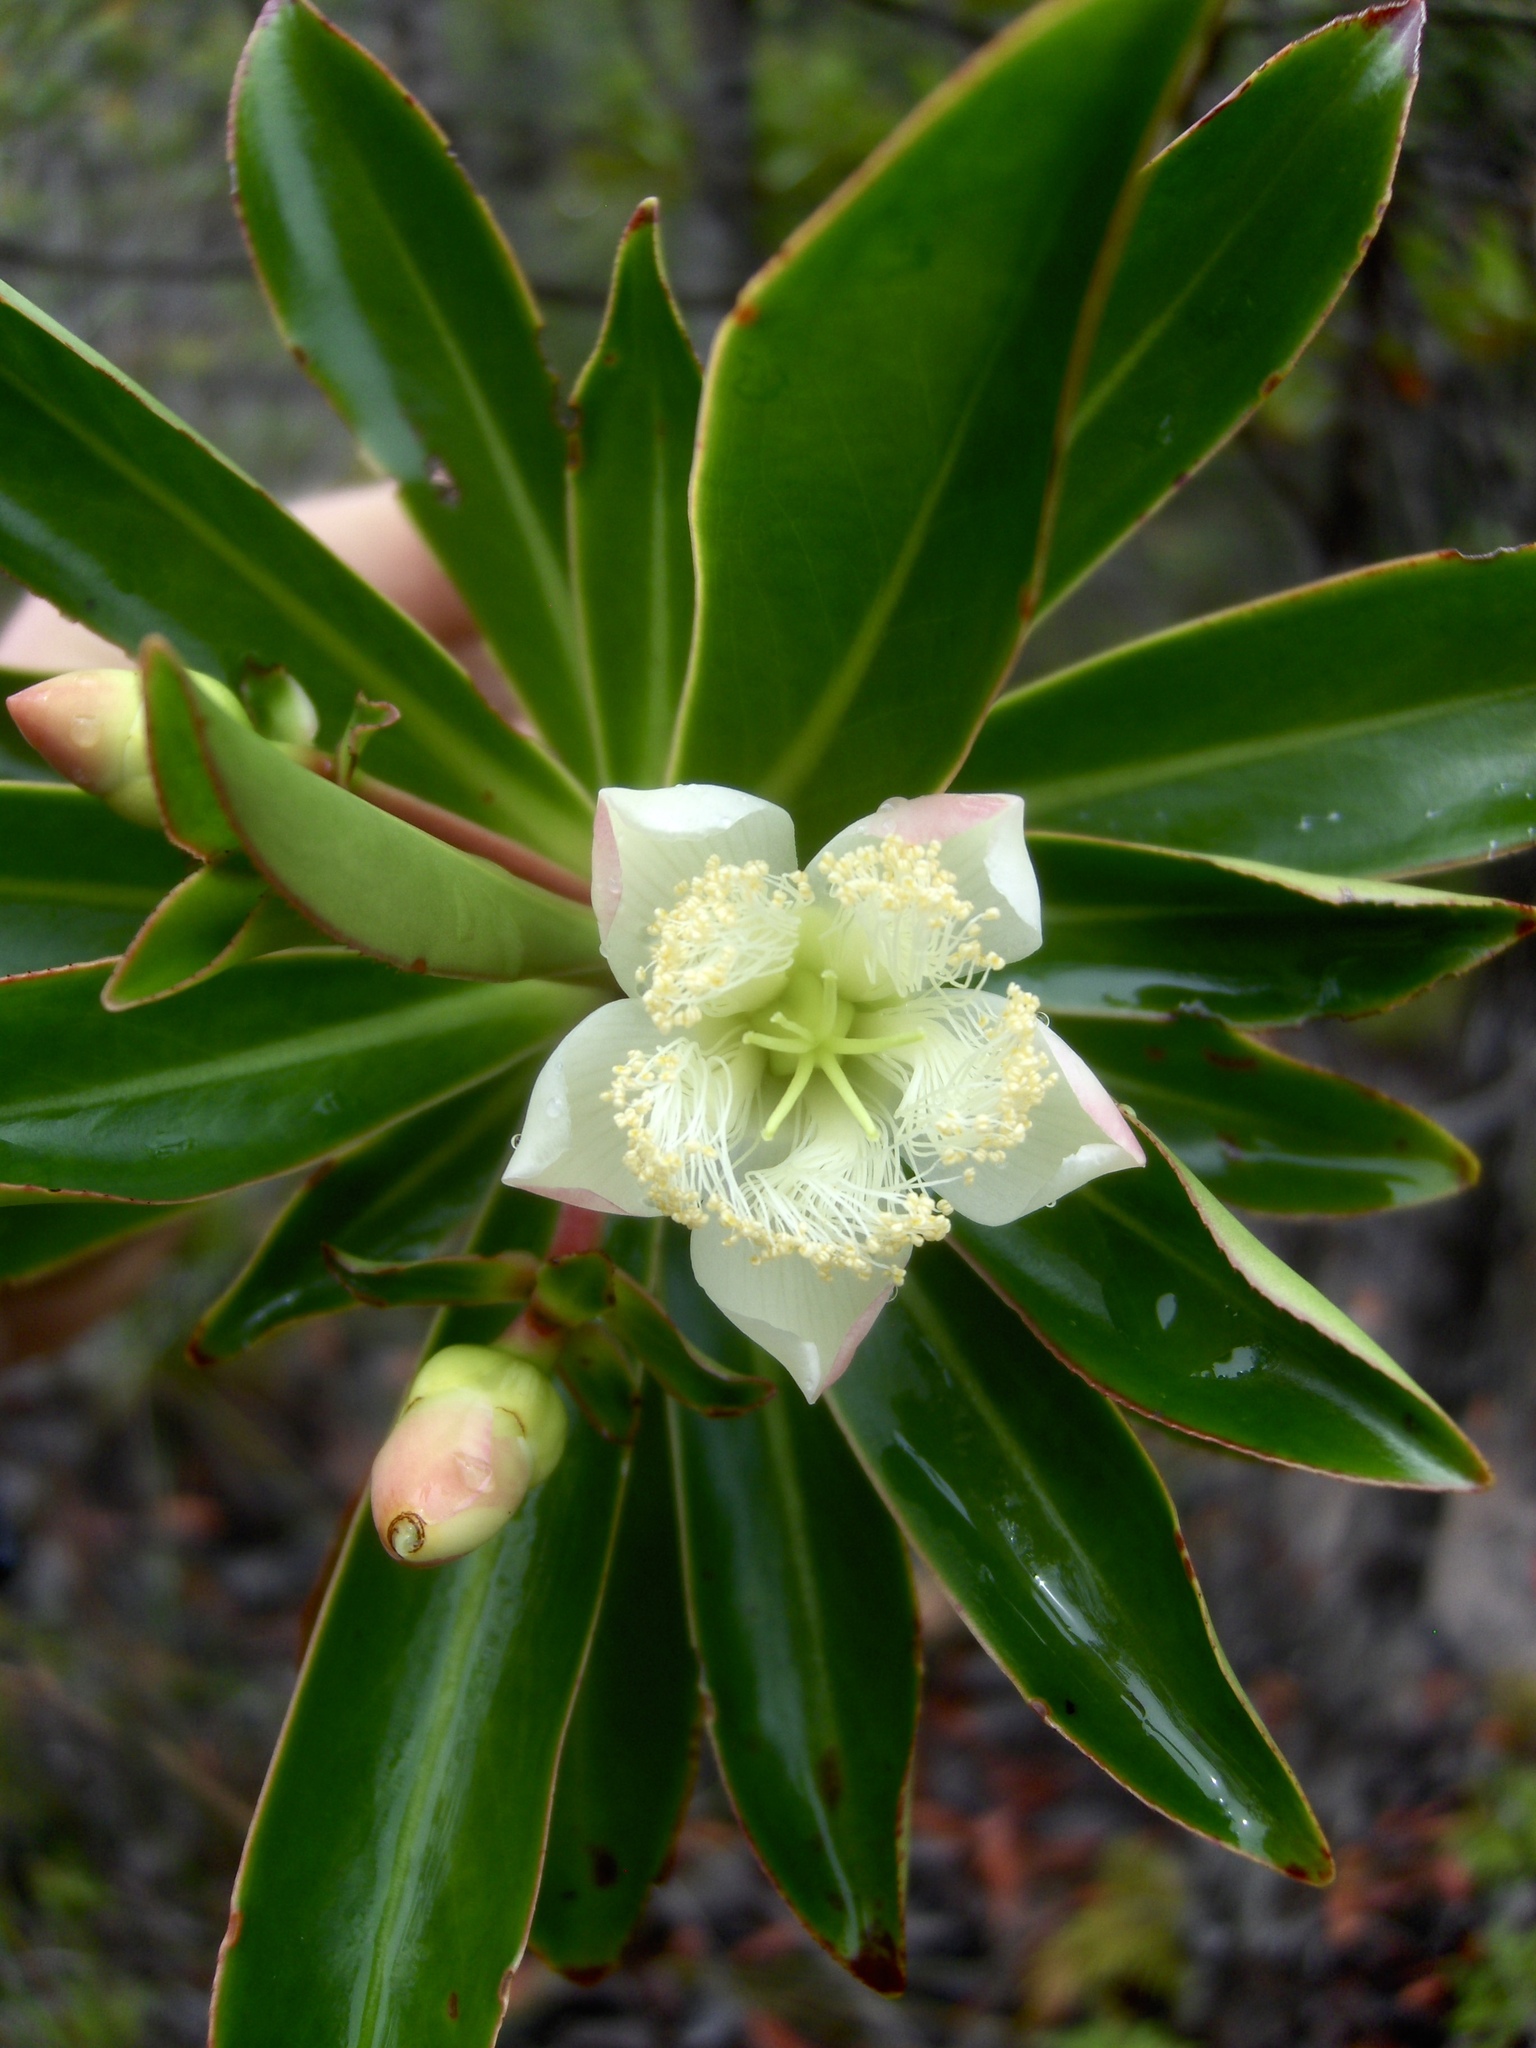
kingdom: Plantae
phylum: Tracheophyta
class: Magnoliopsida
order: Malpighiales
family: Bonnetiaceae
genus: Ploiarium
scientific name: Ploiarium elegans
